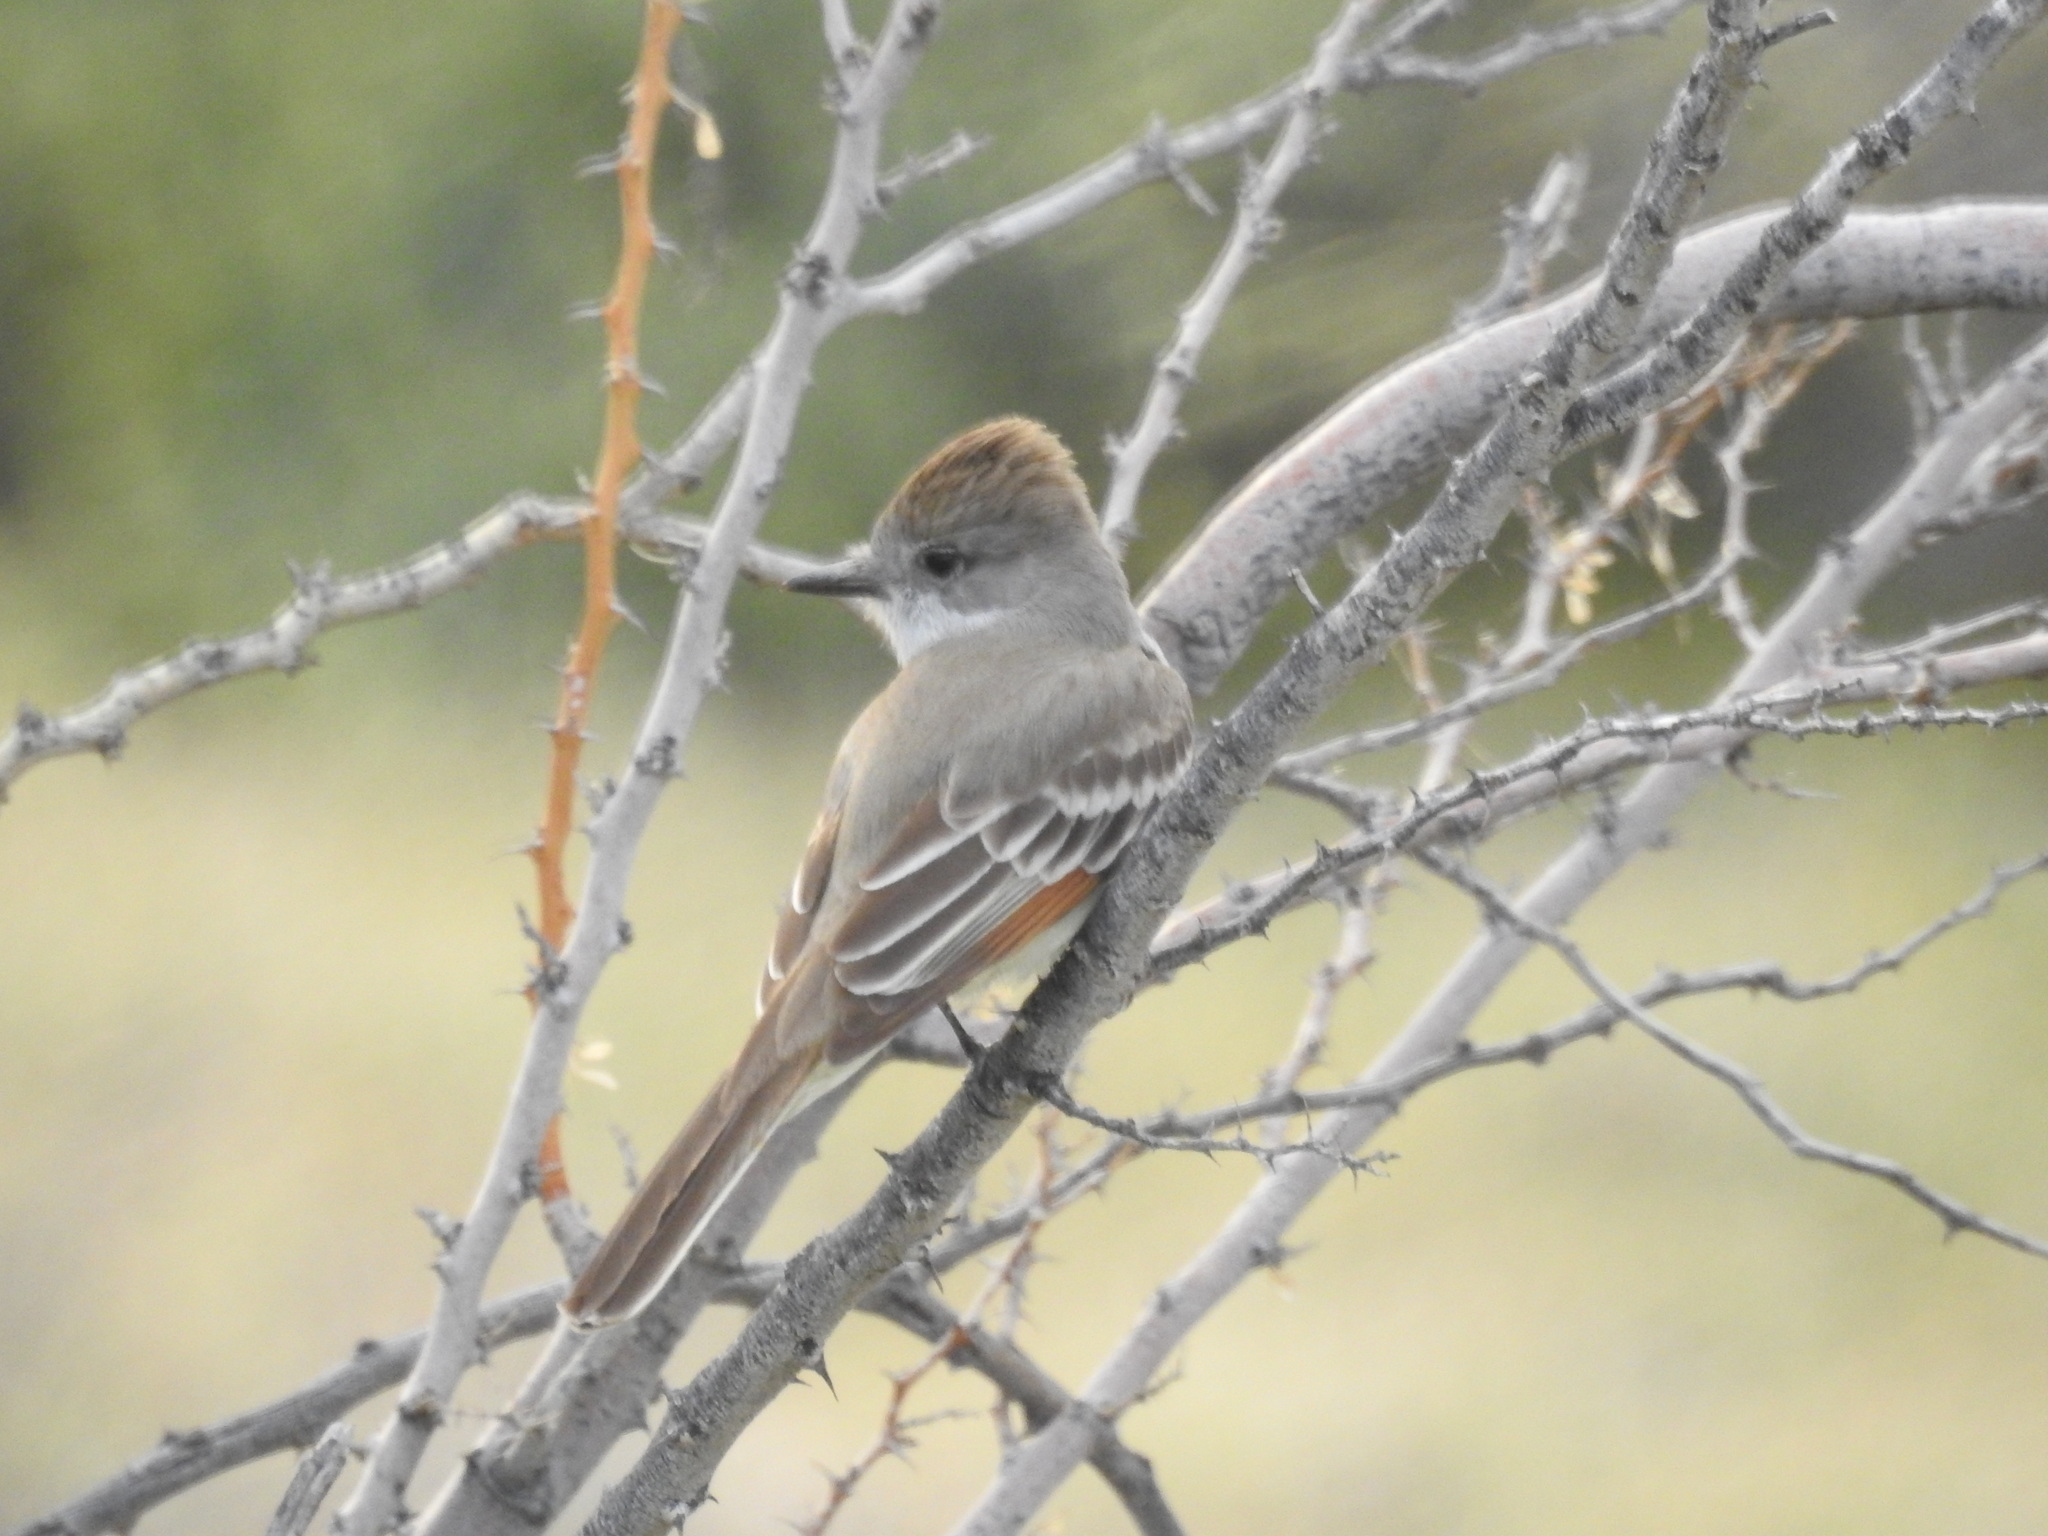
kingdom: Animalia
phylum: Chordata
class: Aves
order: Passeriformes
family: Tyrannidae
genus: Myiarchus
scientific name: Myiarchus cinerascens
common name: Ash-throated flycatcher
